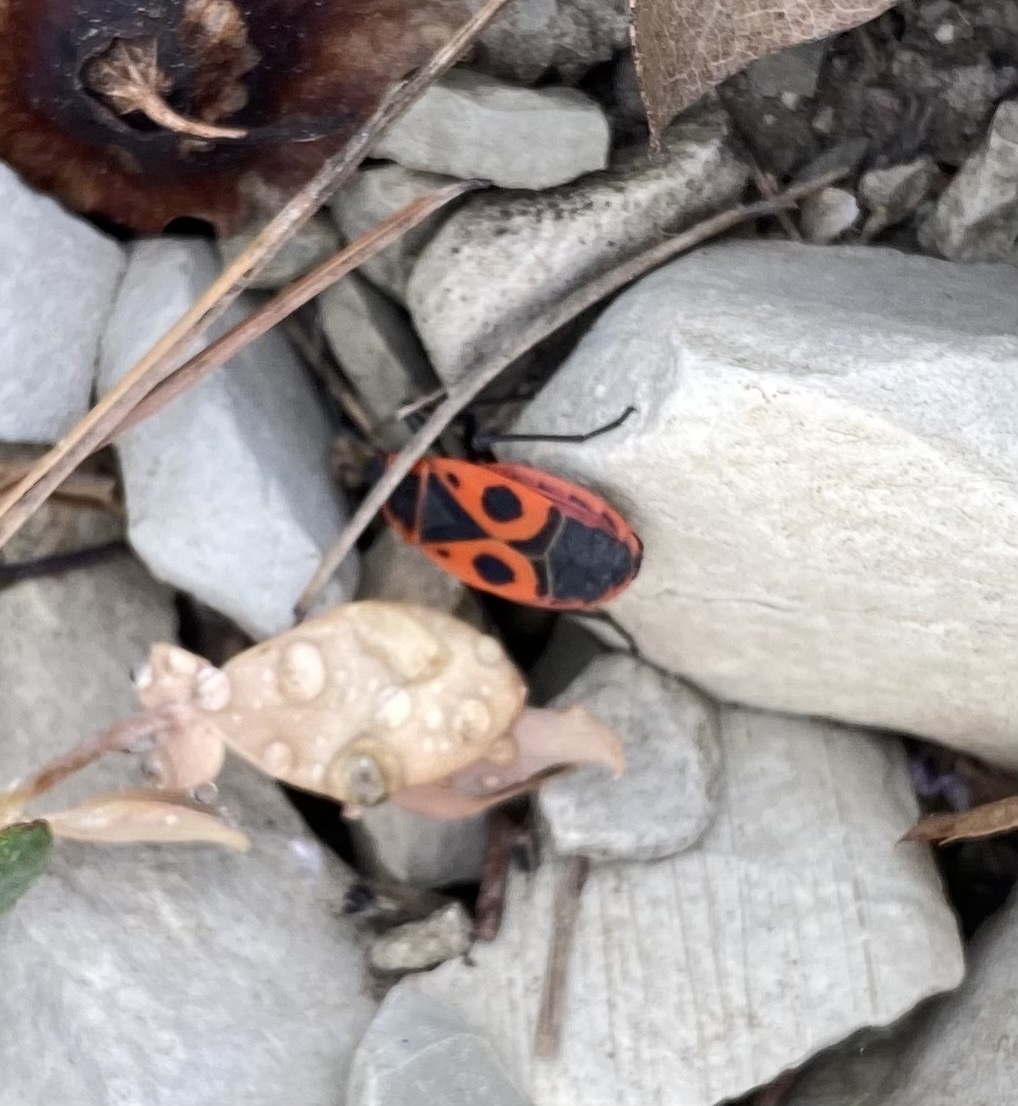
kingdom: Animalia
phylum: Arthropoda
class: Insecta
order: Hemiptera
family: Pyrrhocoridae
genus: Pyrrhocoris
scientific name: Pyrrhocoris apterus
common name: Firebug
